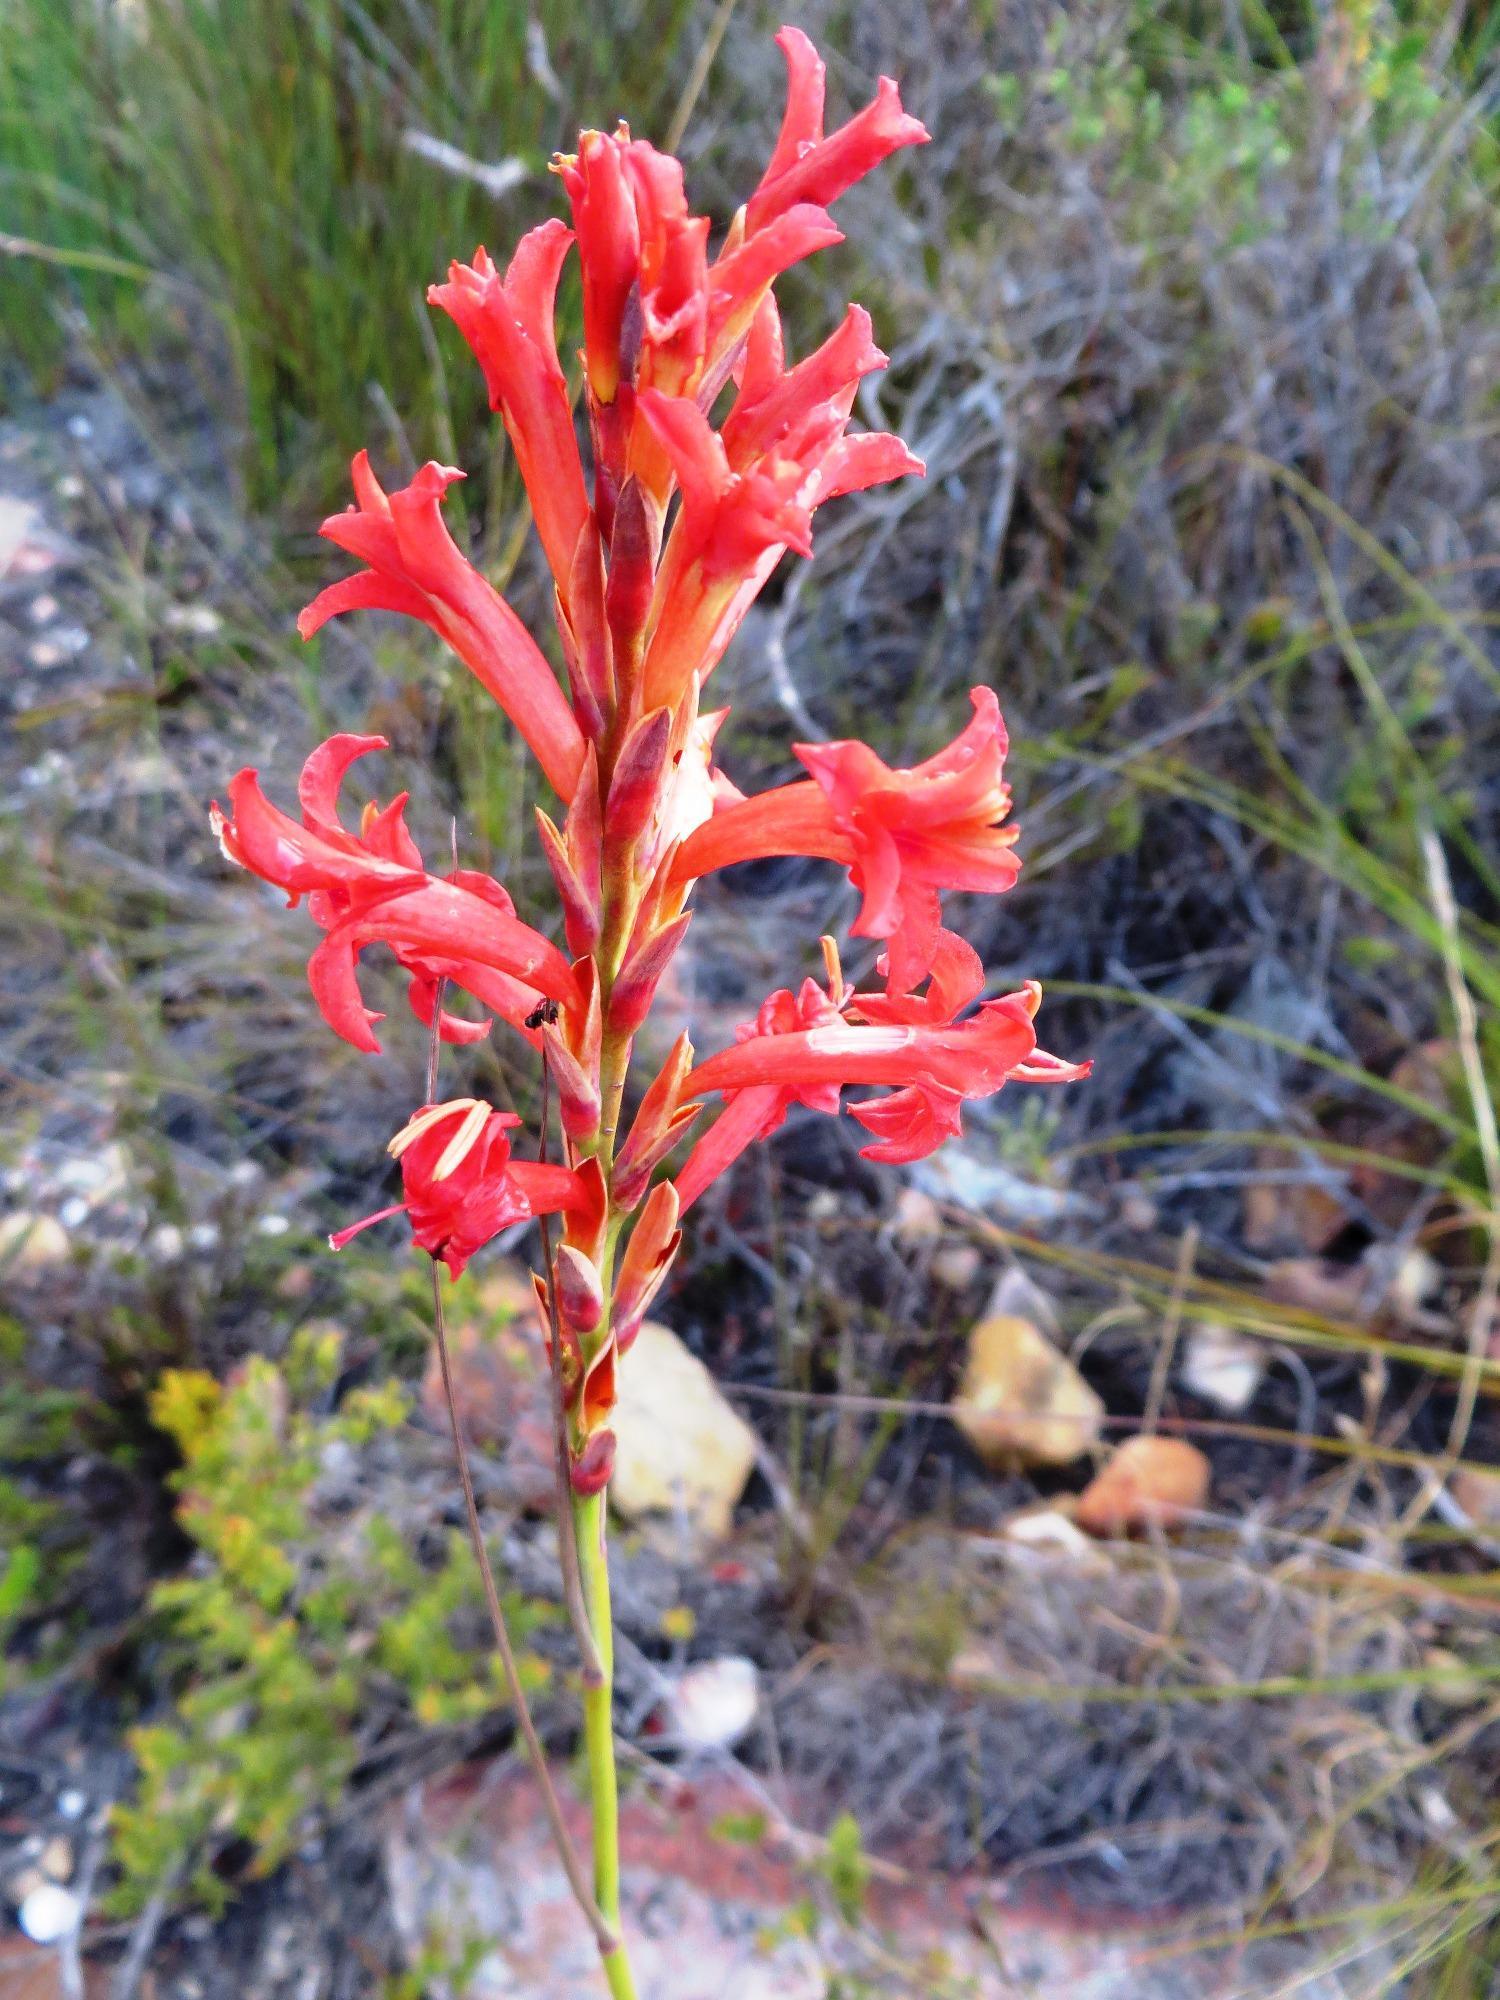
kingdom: Plantae
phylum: Tracheophyta
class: Liliopsida
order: Asparagales
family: Iridaceae
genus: Tritoniopsis
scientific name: Tritoniopsis triticea
